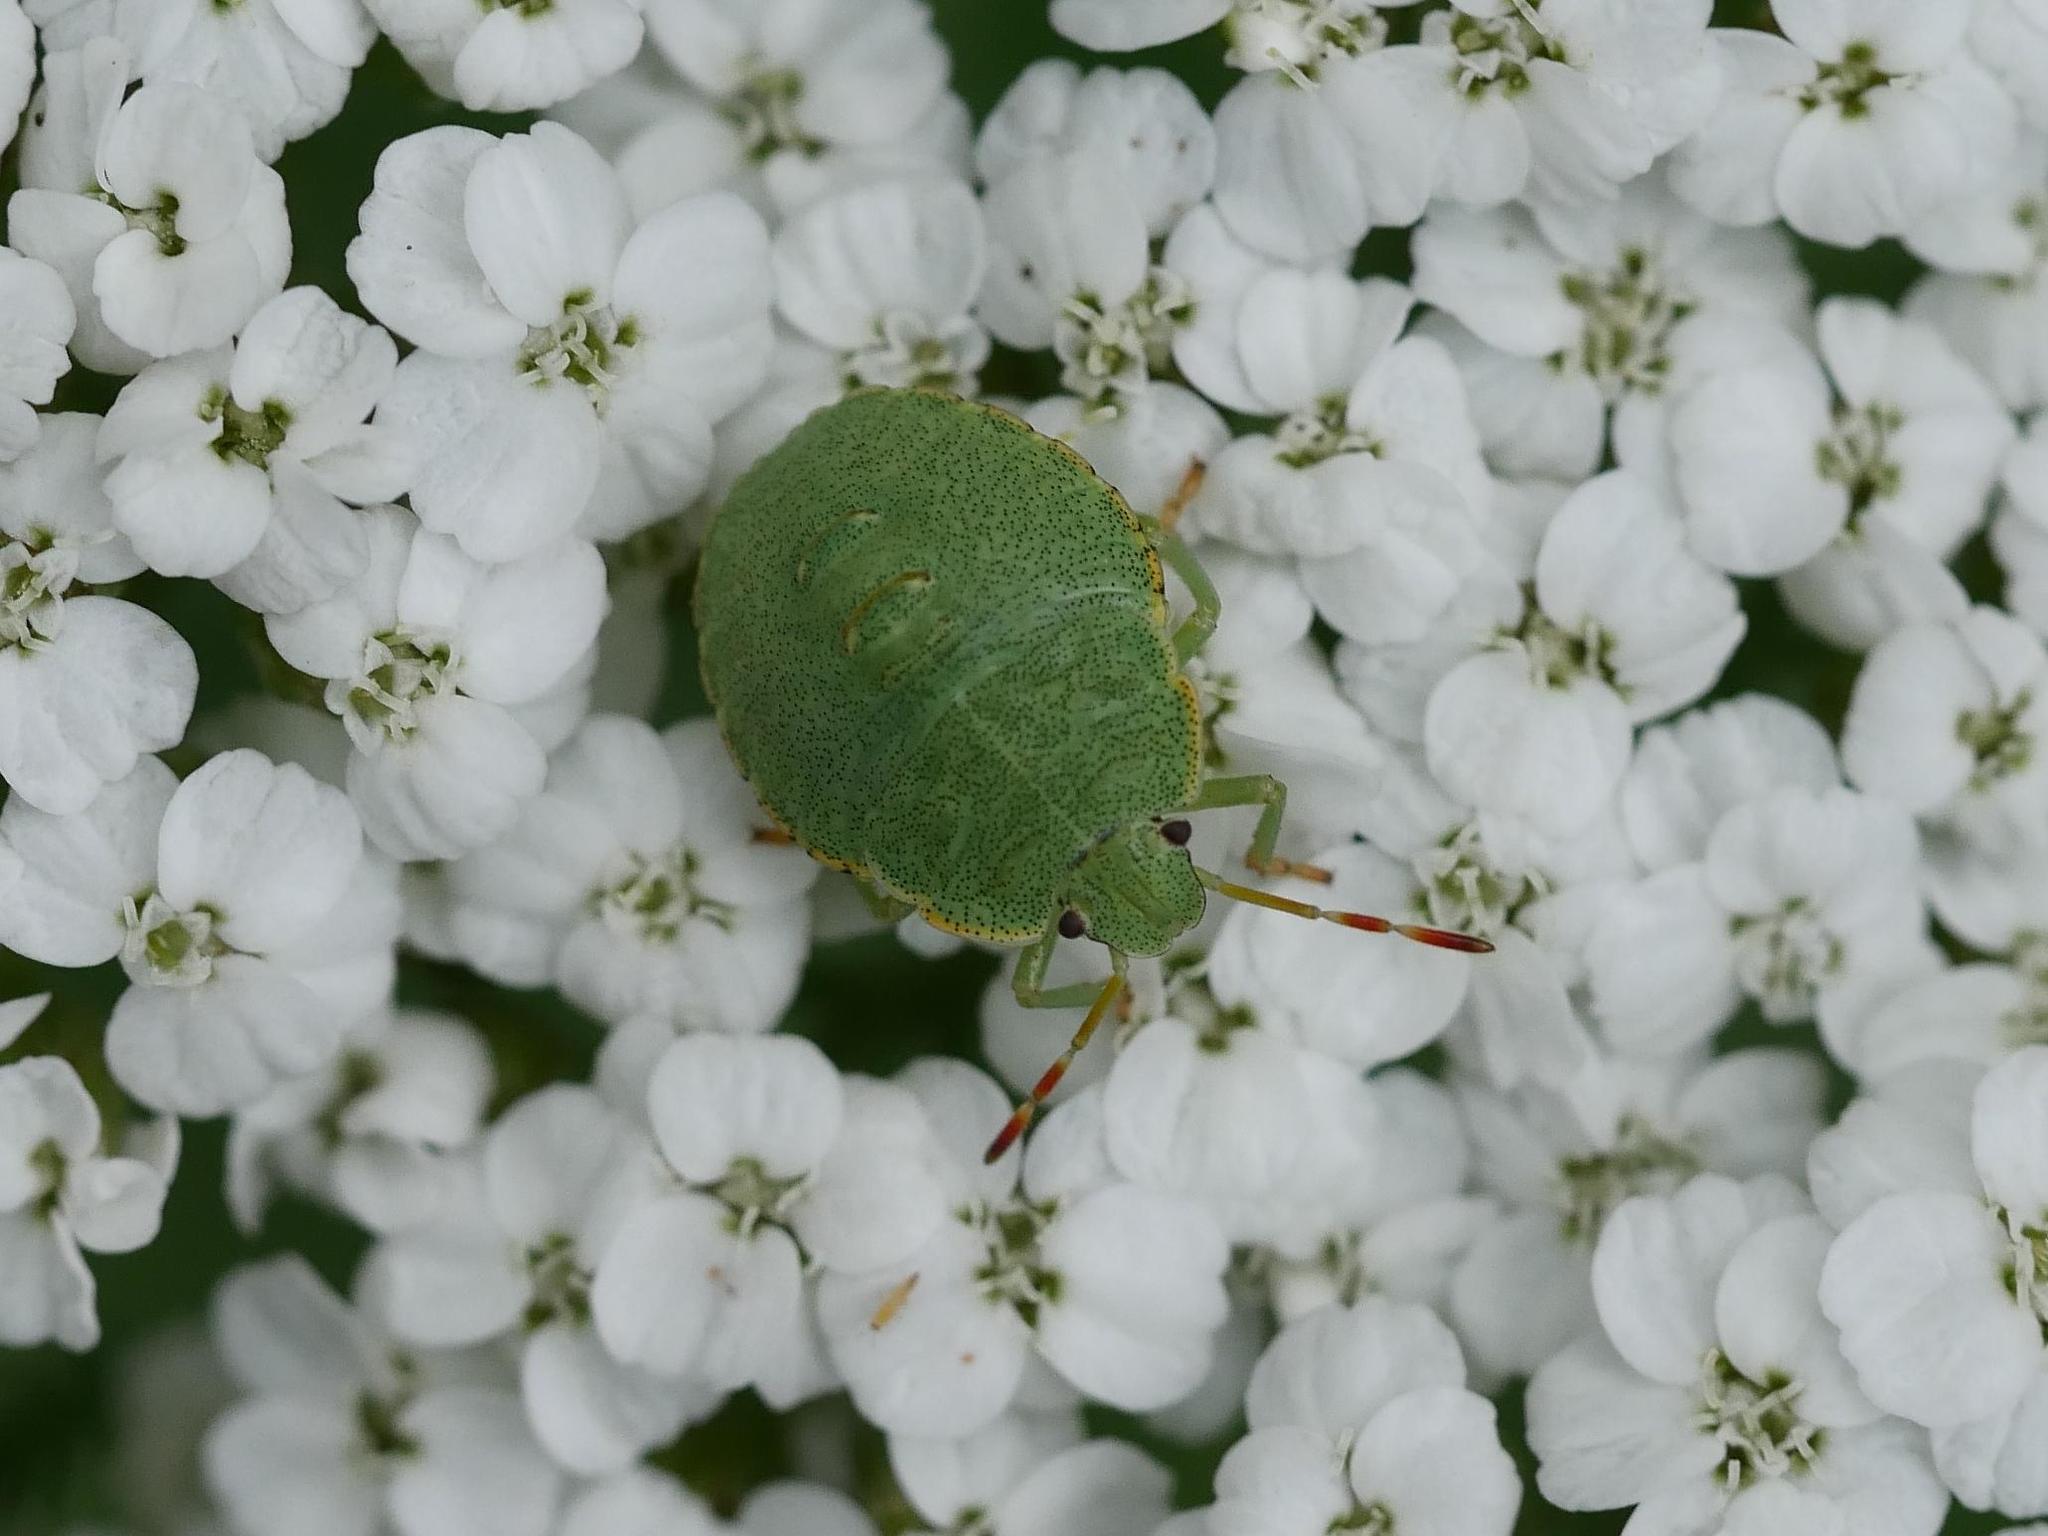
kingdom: Animalia
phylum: Arthropoda
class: Insecta
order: Hemiptera
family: Pentatomidae
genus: Palomena
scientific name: Palomena prasina
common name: Green shieldbug
